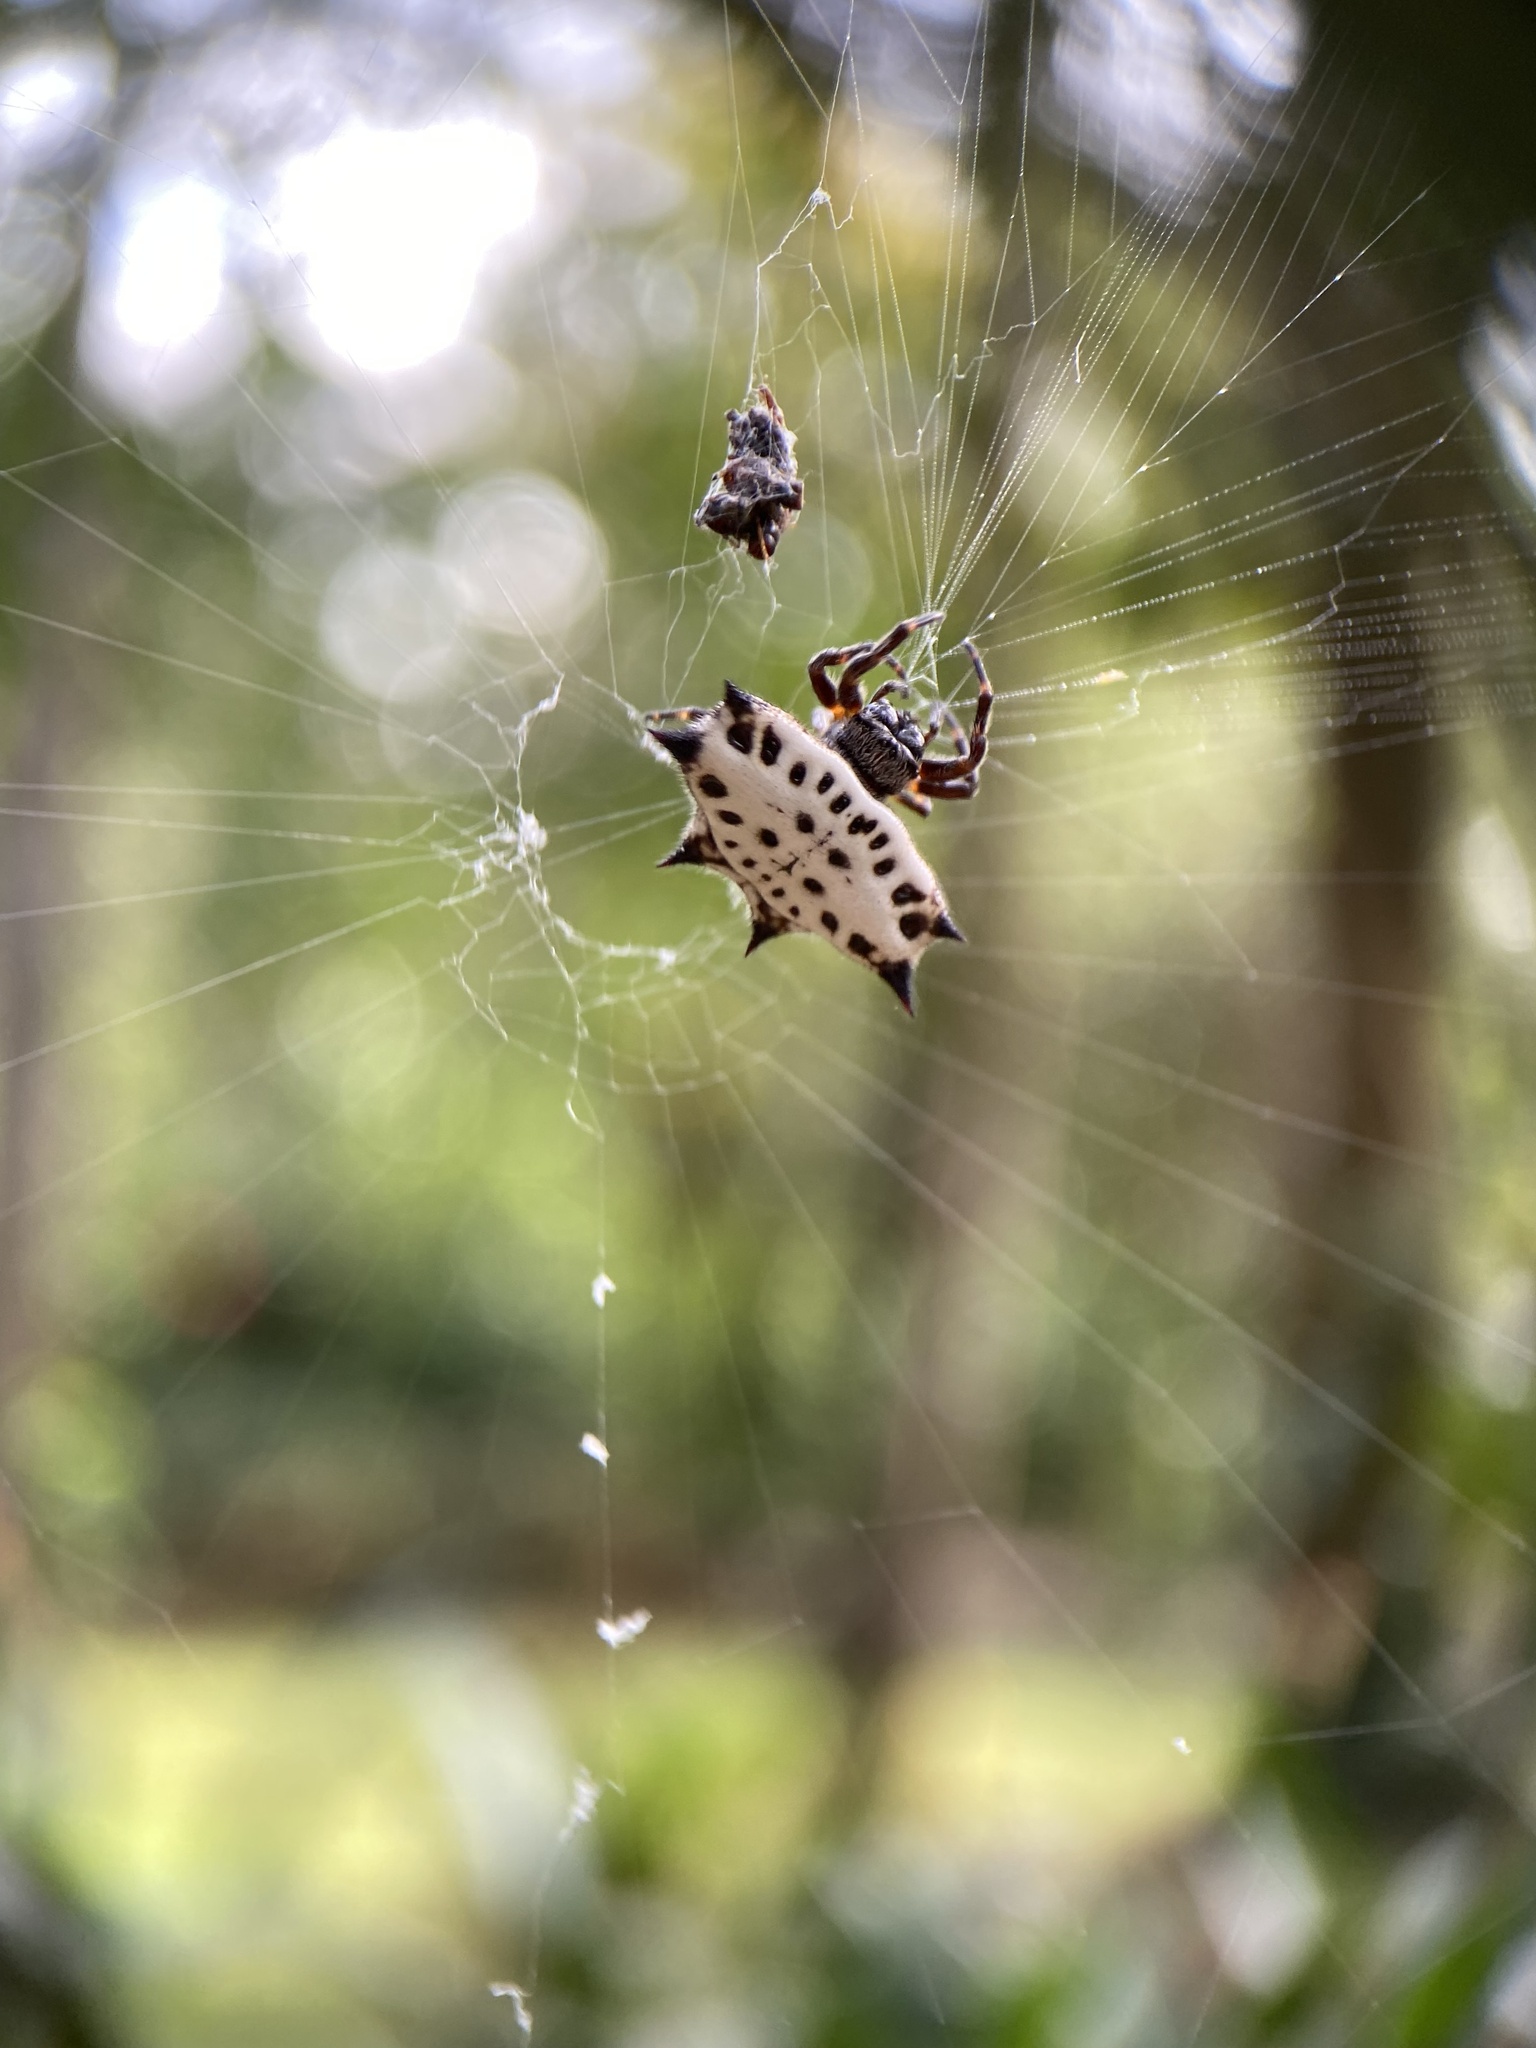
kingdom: Animalia
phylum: Arthropoda
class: Arachnida
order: Araneae
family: Araneidae
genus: Gasteracantha
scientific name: Gasteracantha cancriformis
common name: Orb weavers
